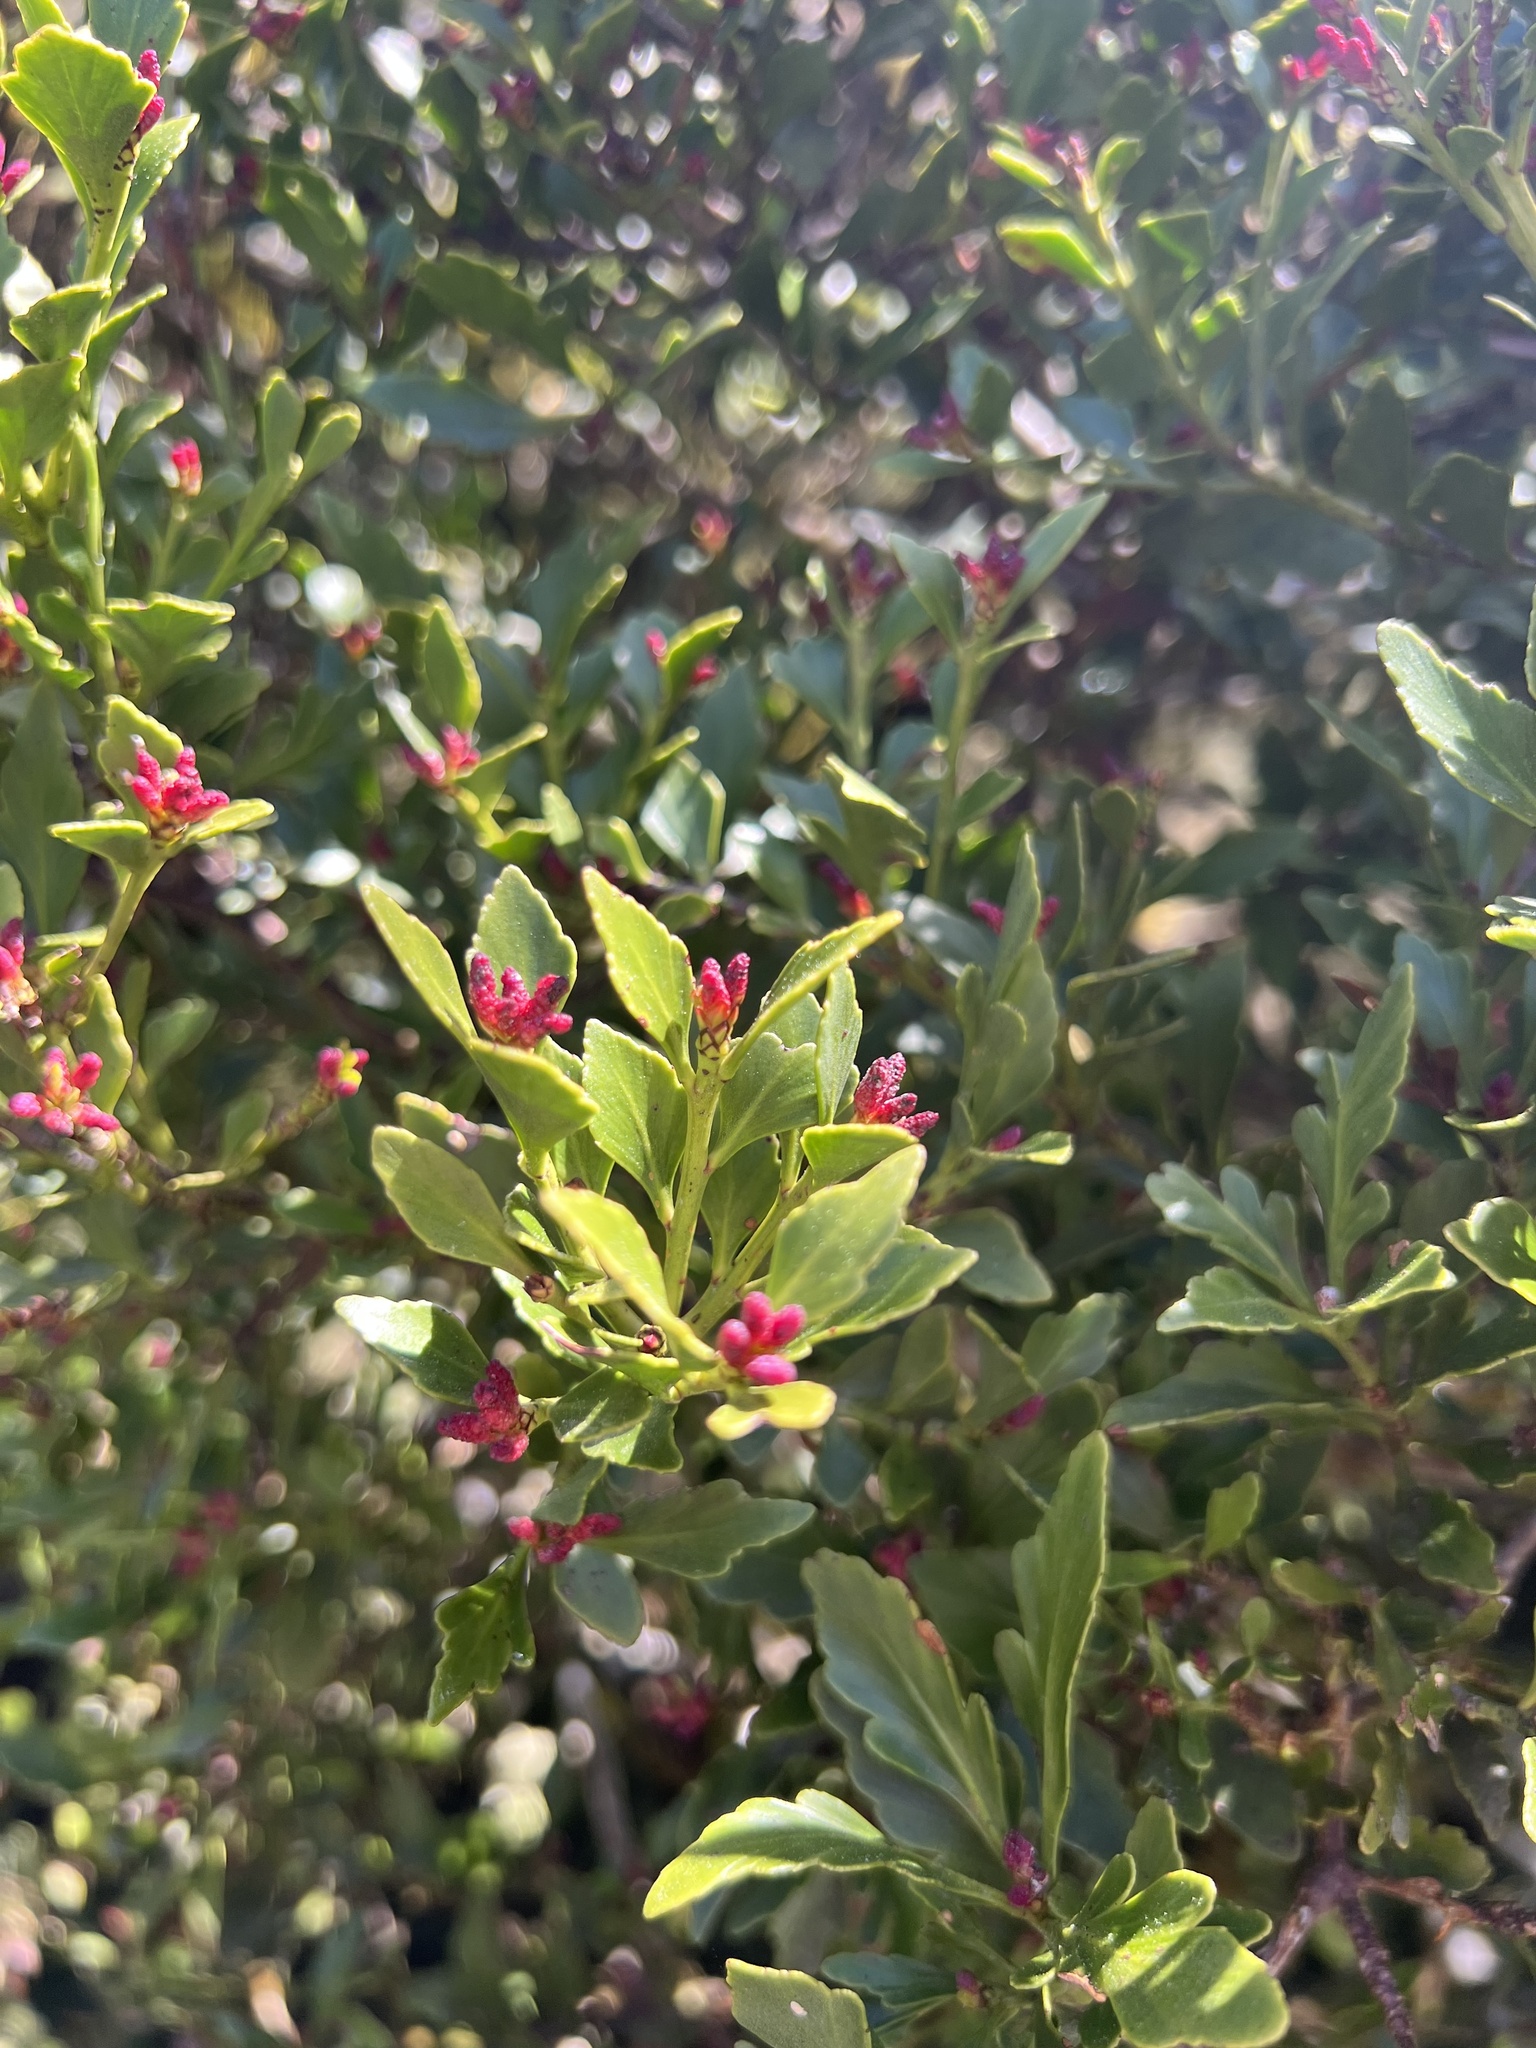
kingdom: Plantae
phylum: Tracheophyta
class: Pinopsida
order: Pinales
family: Phyllocladaceae
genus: Phyllocladus
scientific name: Phyllocladus trichomanoides
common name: Celery pine
